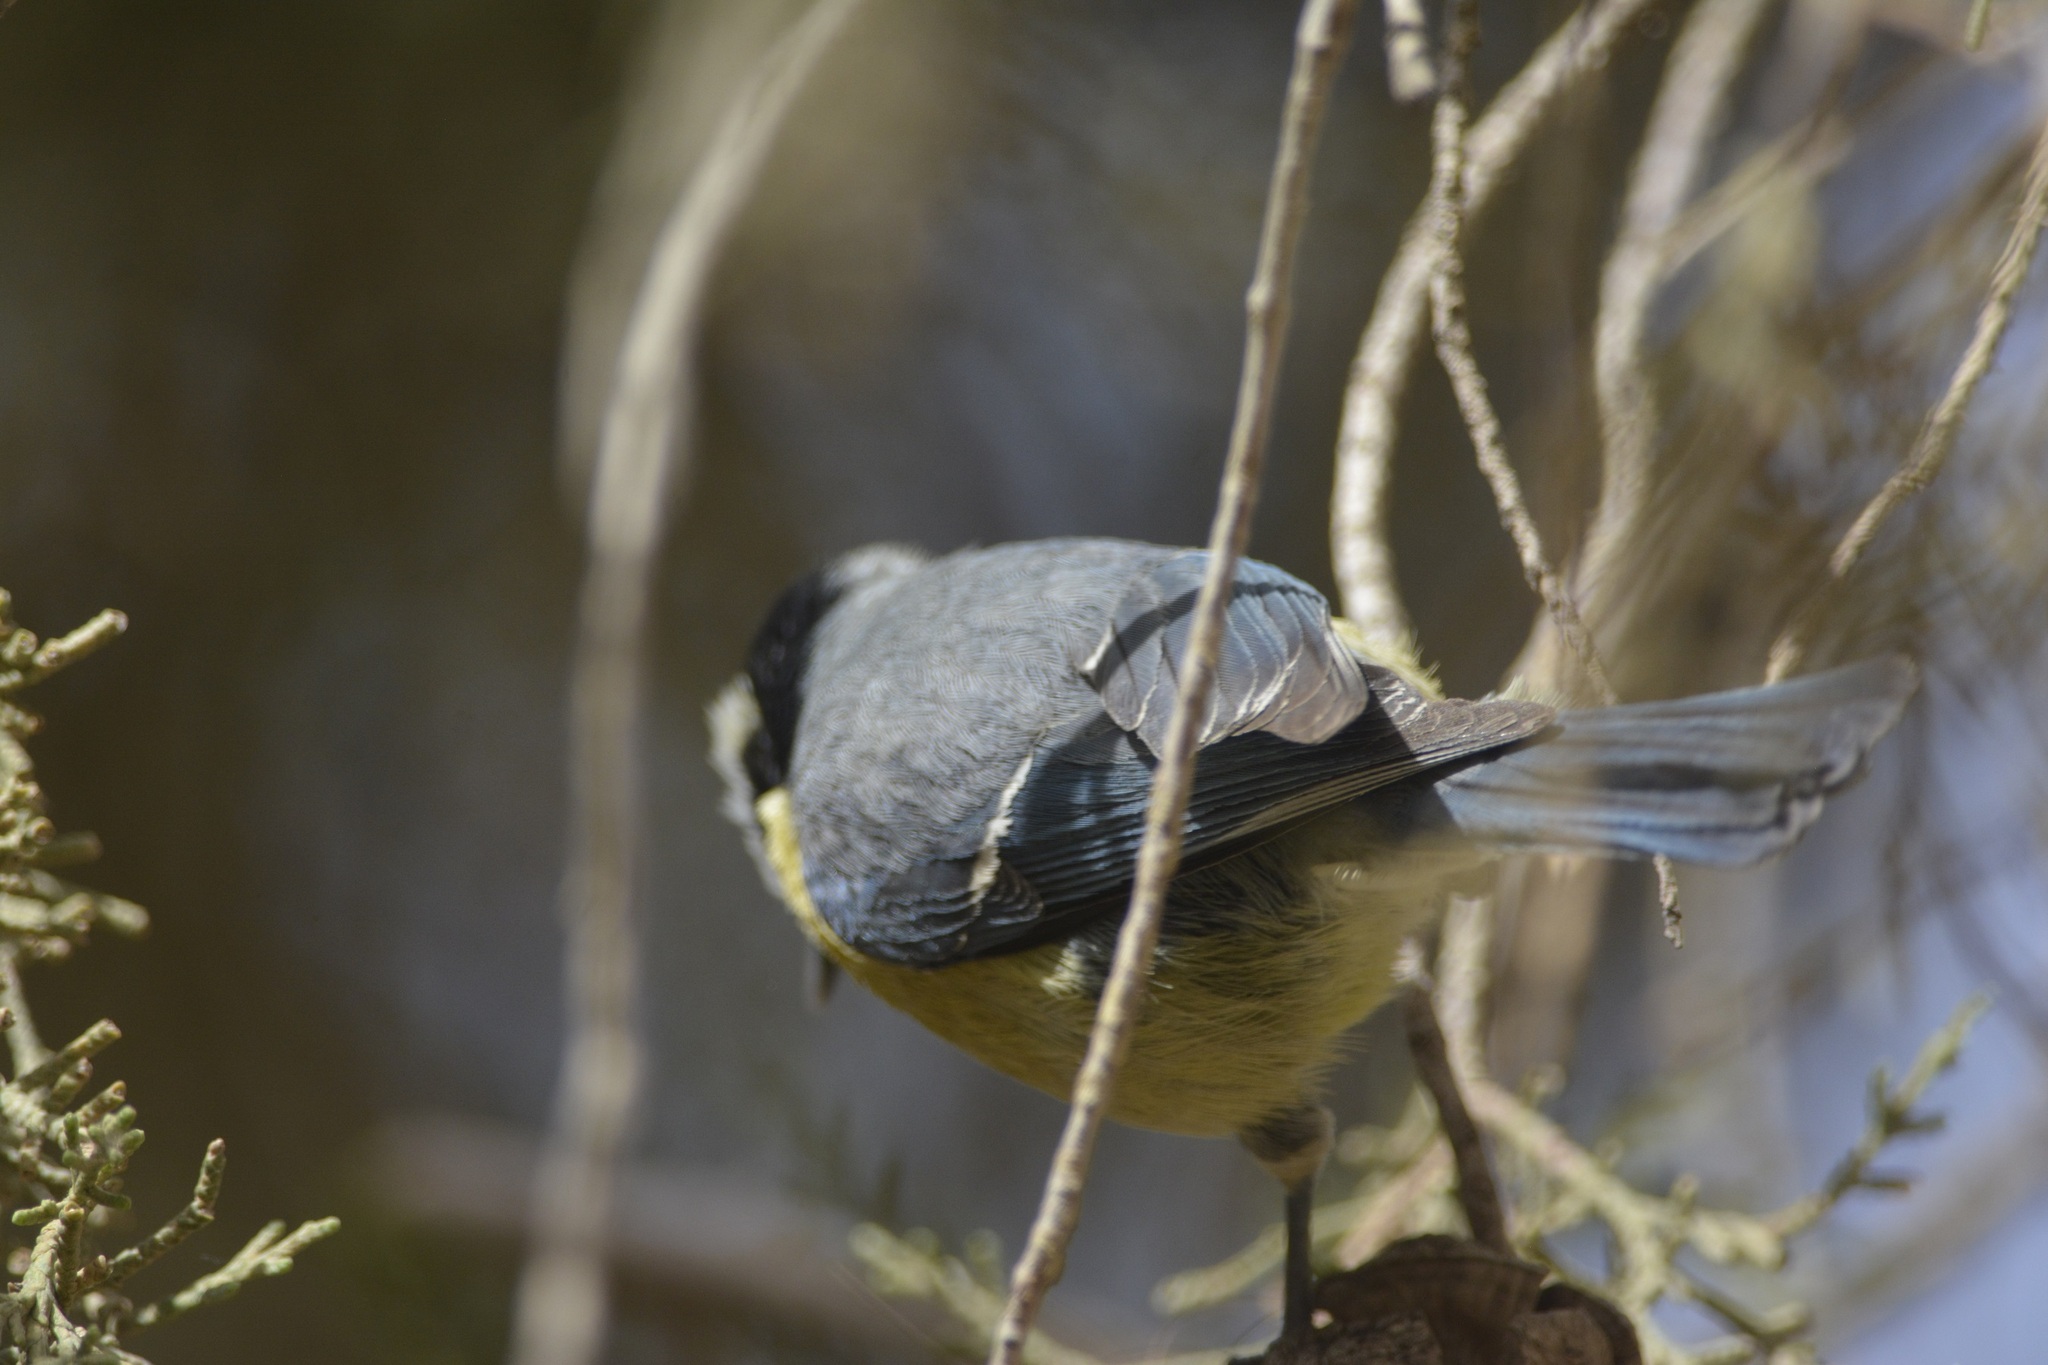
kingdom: Animalia
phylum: Chordata
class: Aves
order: Passeriformes
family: Paridae
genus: Cyanistes
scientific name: Cyanistes teneriffae
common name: African blue tit
